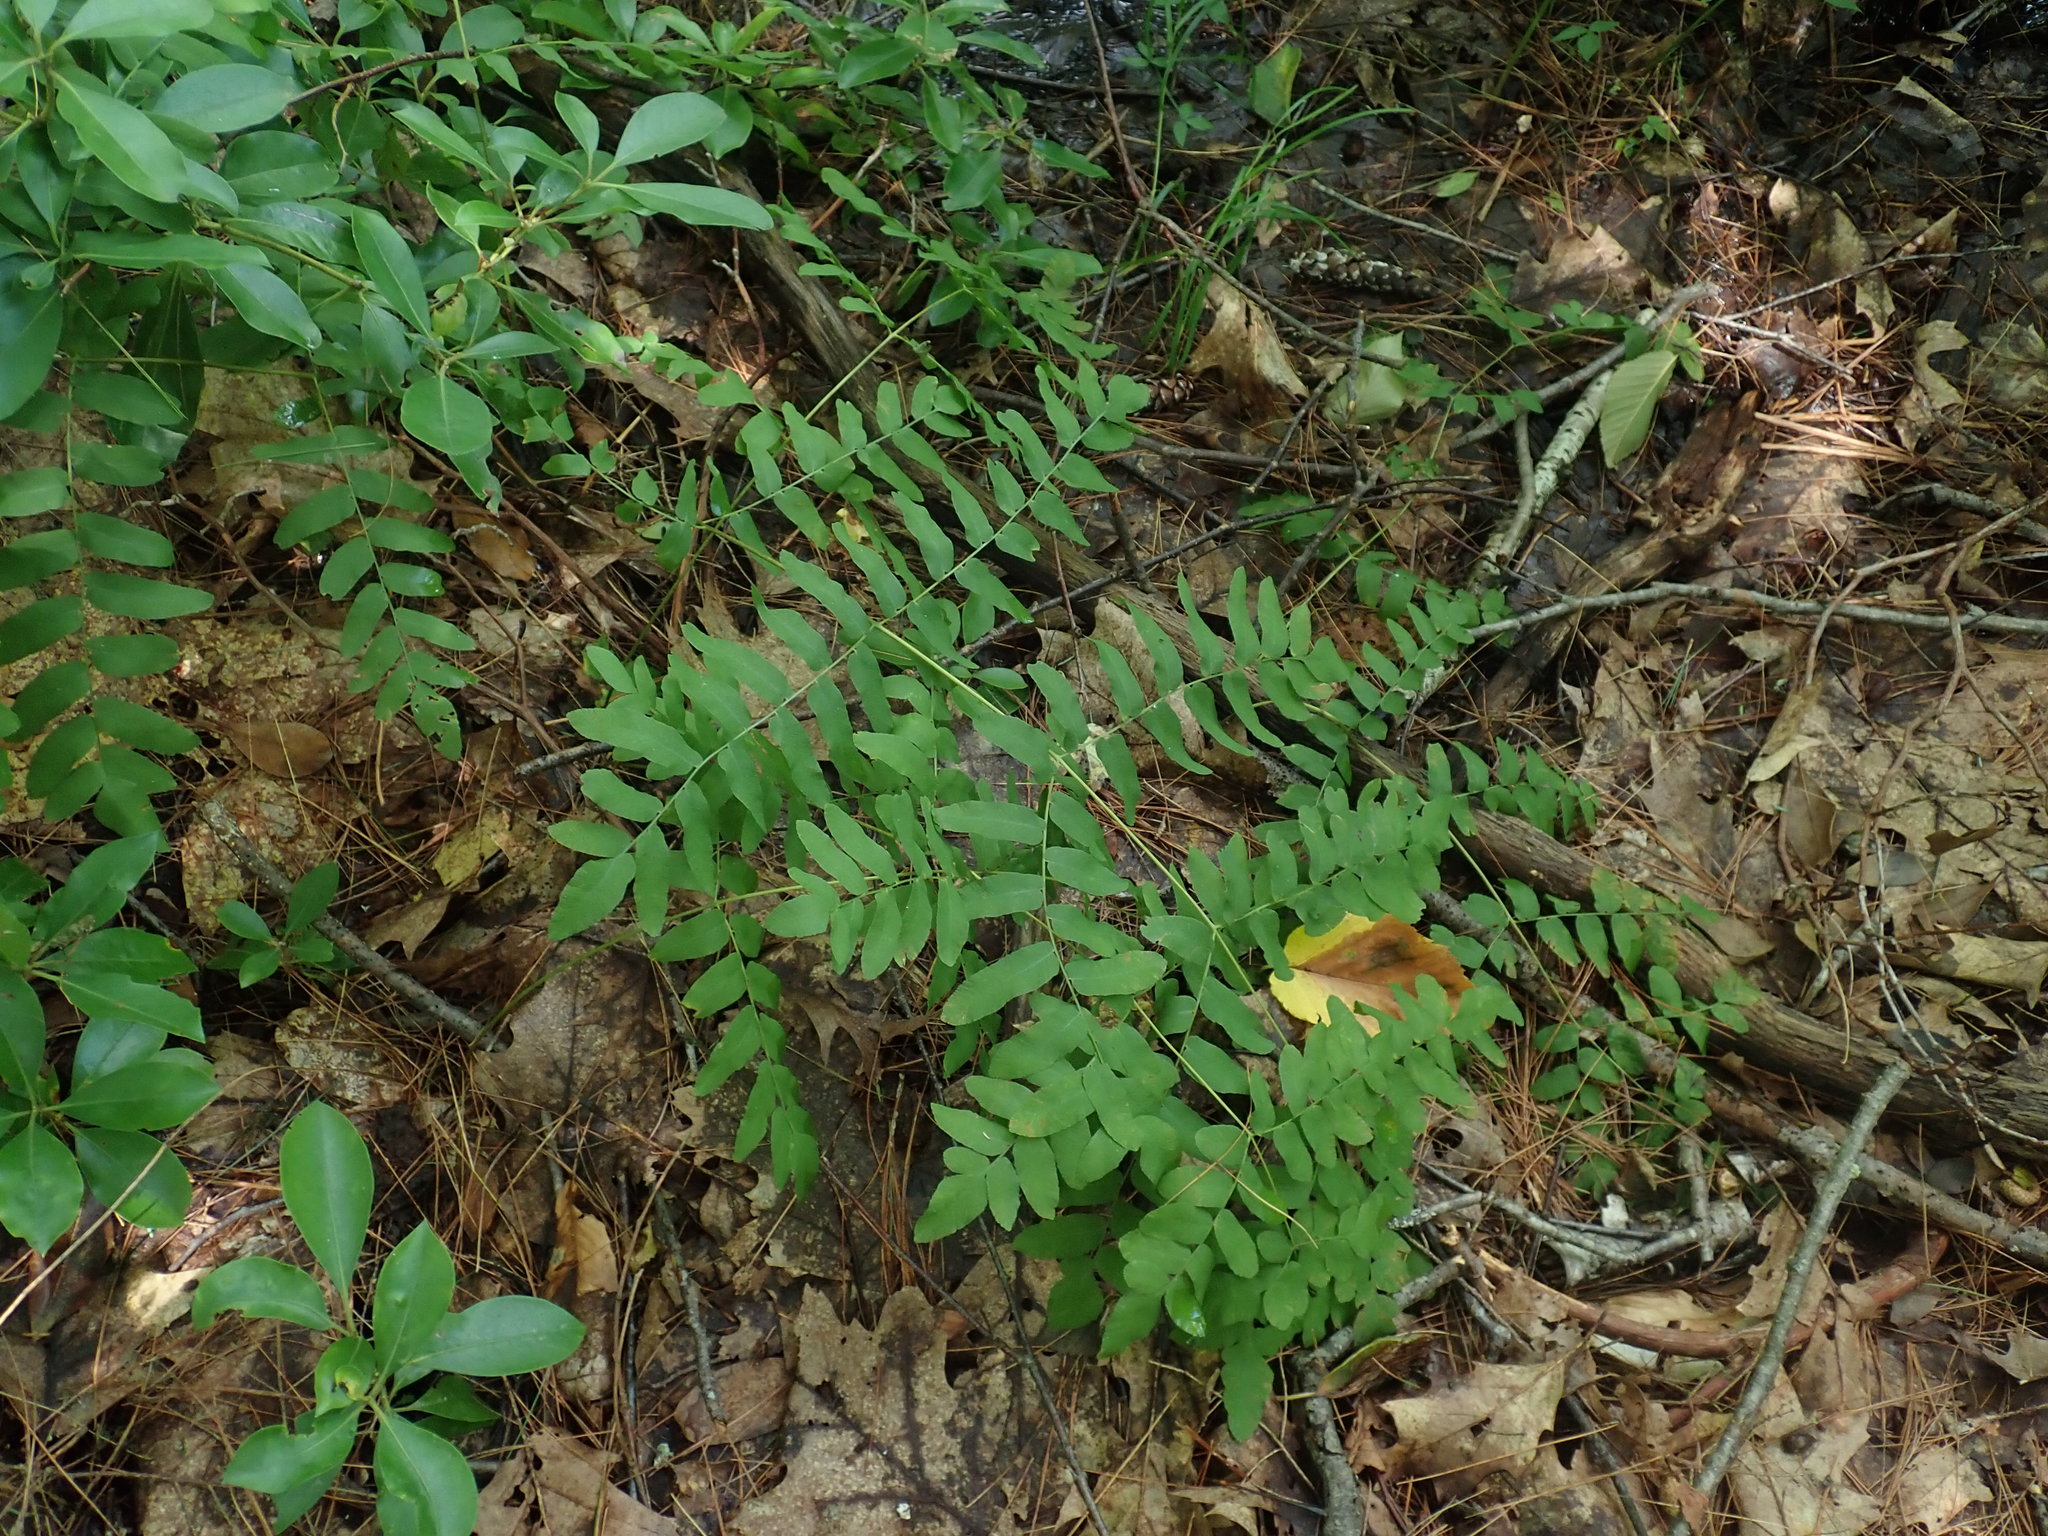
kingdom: Plantae
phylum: Tracheophyta
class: Polypodiopsida
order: Osmundales
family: Osmundaceae
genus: Osmunda
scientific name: Osmunda spectabilis
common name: American royal fern
